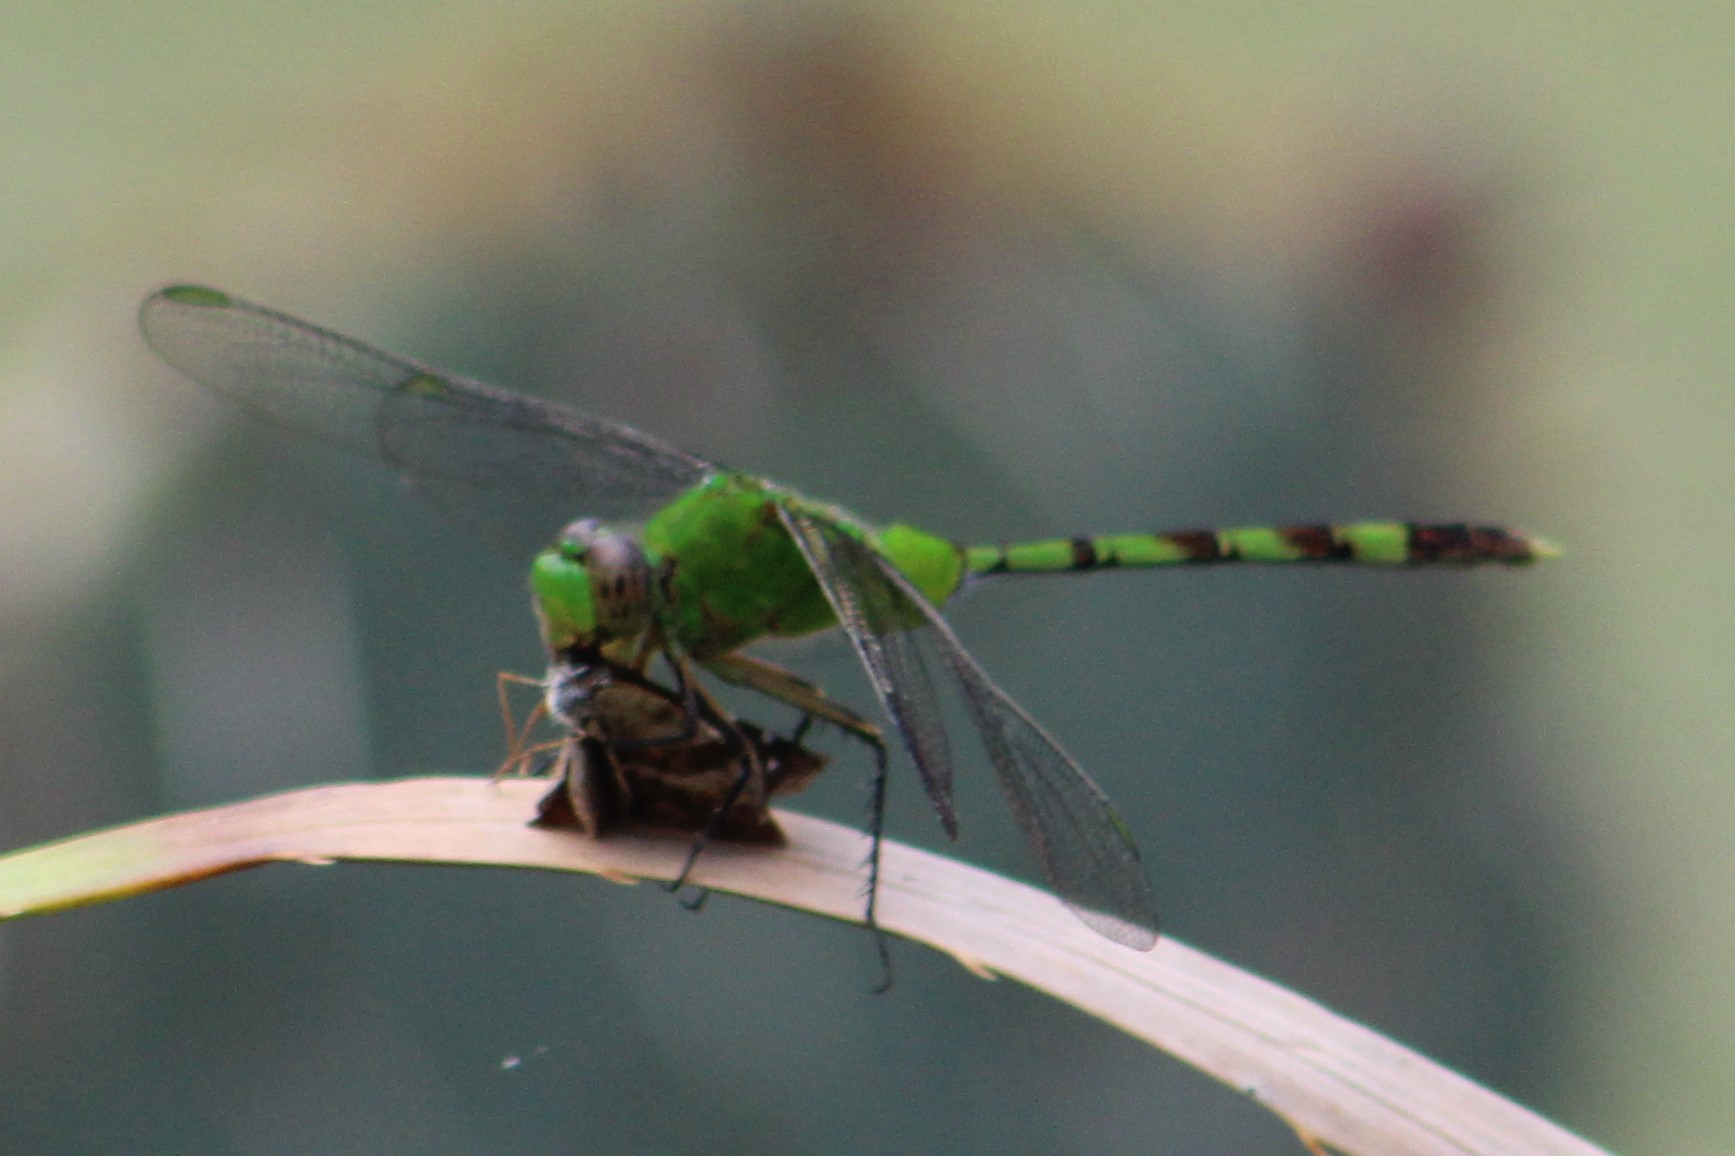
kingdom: Animalia
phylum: Arthropoda
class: Insecta
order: Odonata
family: Libellulidae
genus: Erythemis
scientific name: Erythemis vesiculosa
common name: Great pondhawk
